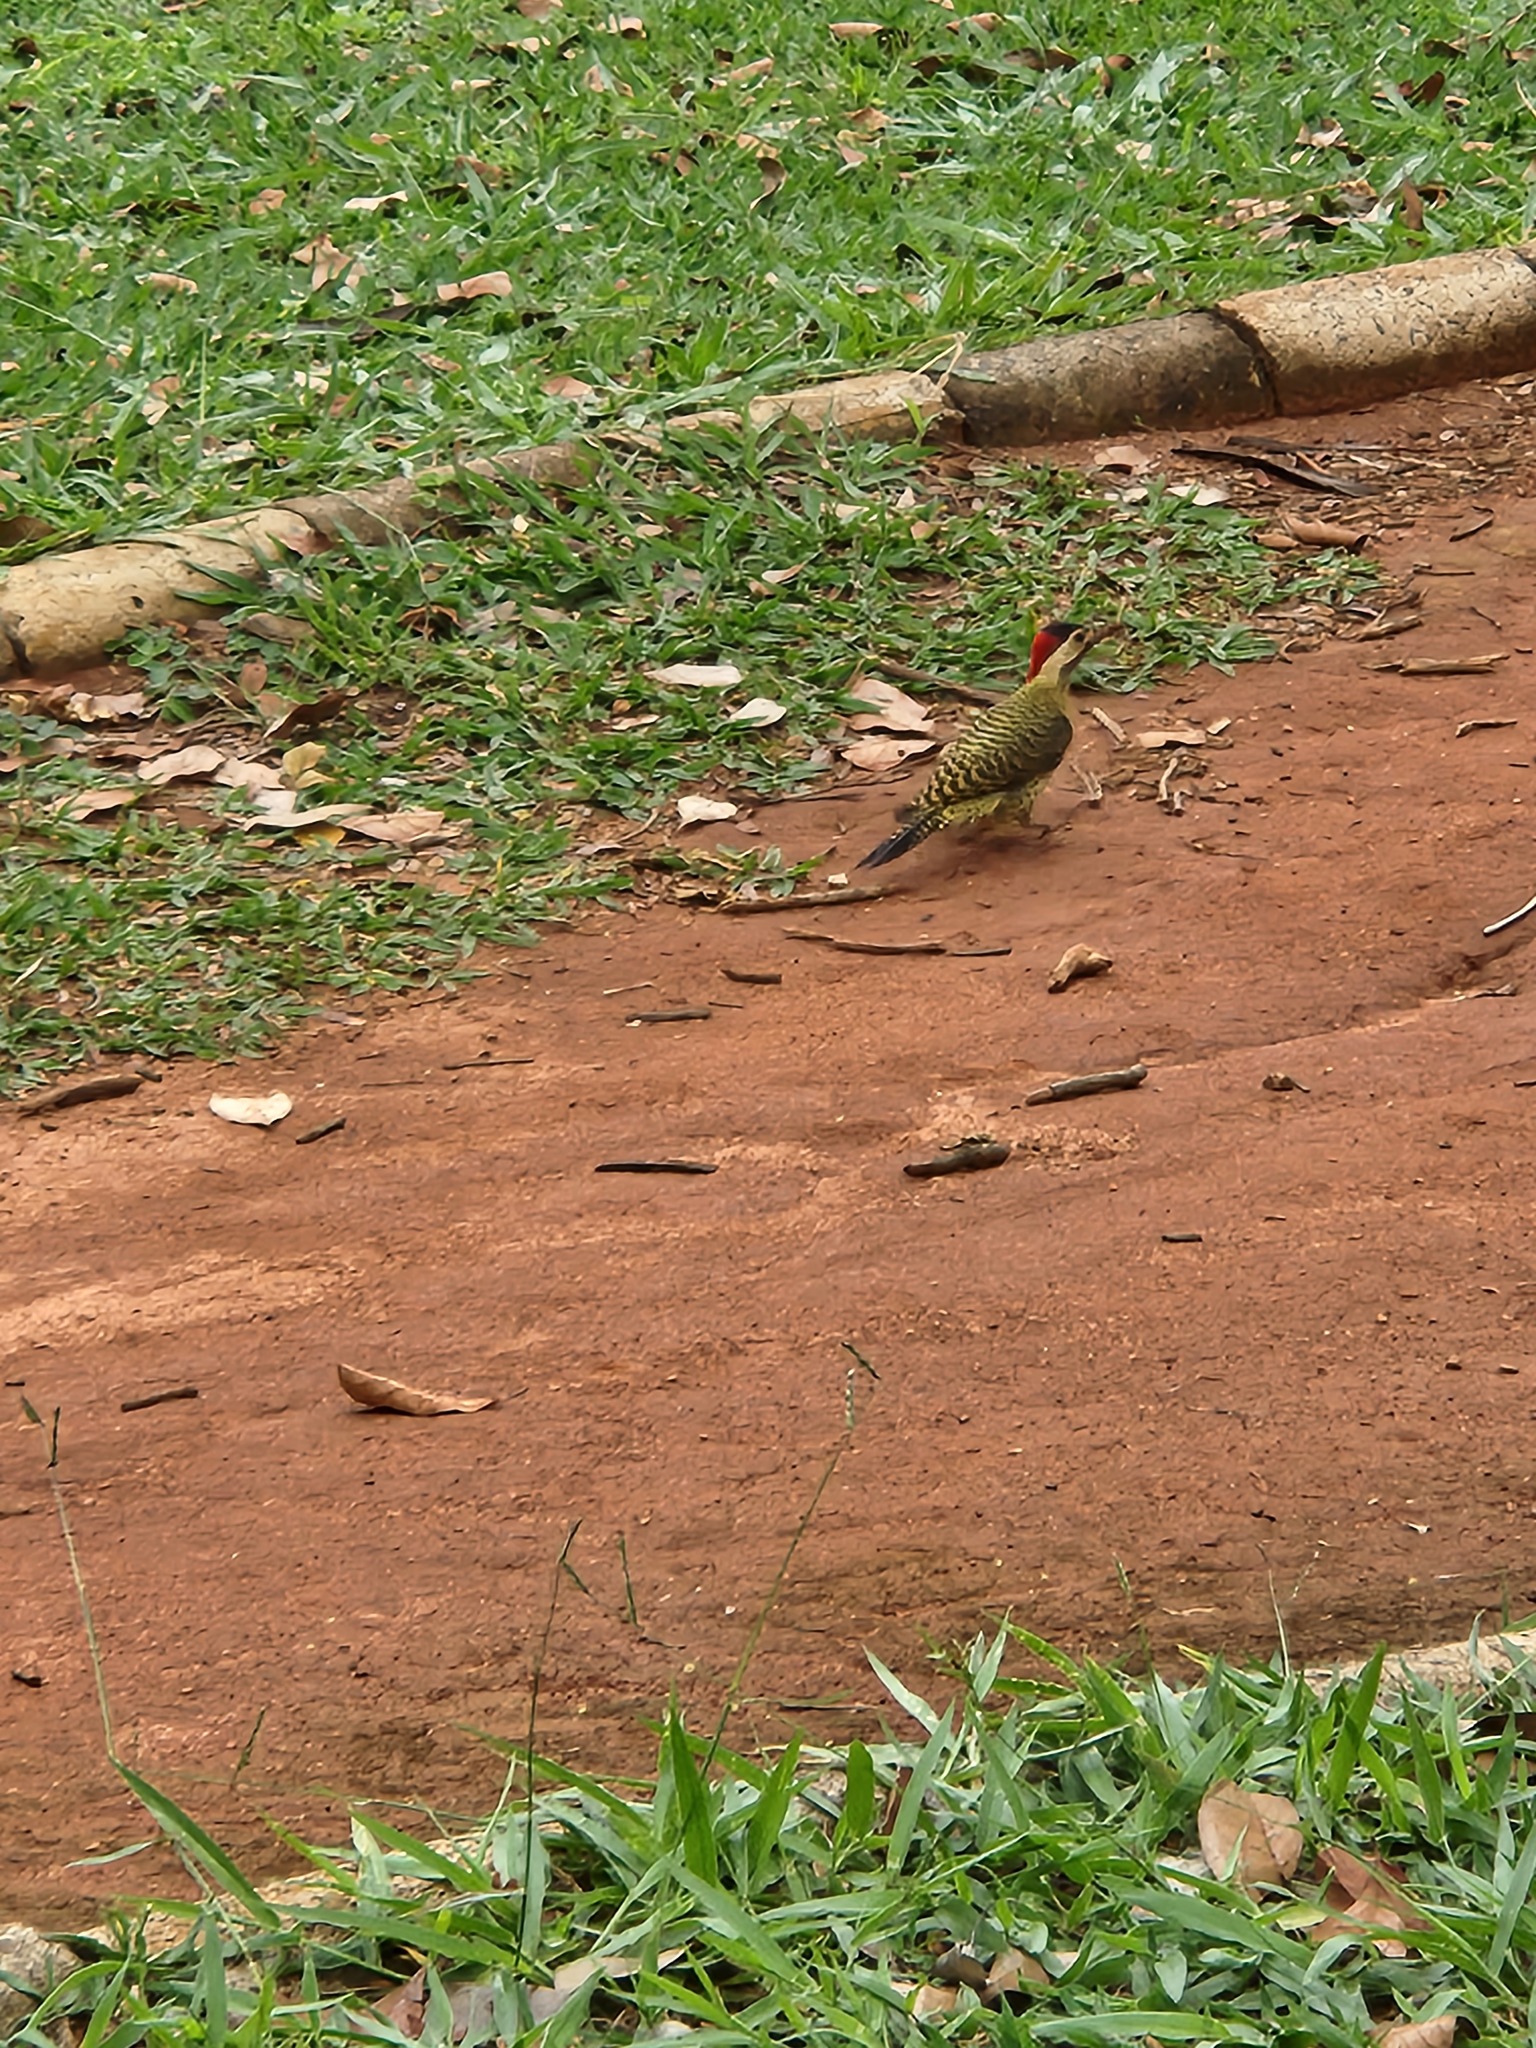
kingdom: Animalia
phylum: Chordata
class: Aves
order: Piciformes
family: Picidae
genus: Colaptes
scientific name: Colaptes melanochloros
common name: Green-barred woodpecker
